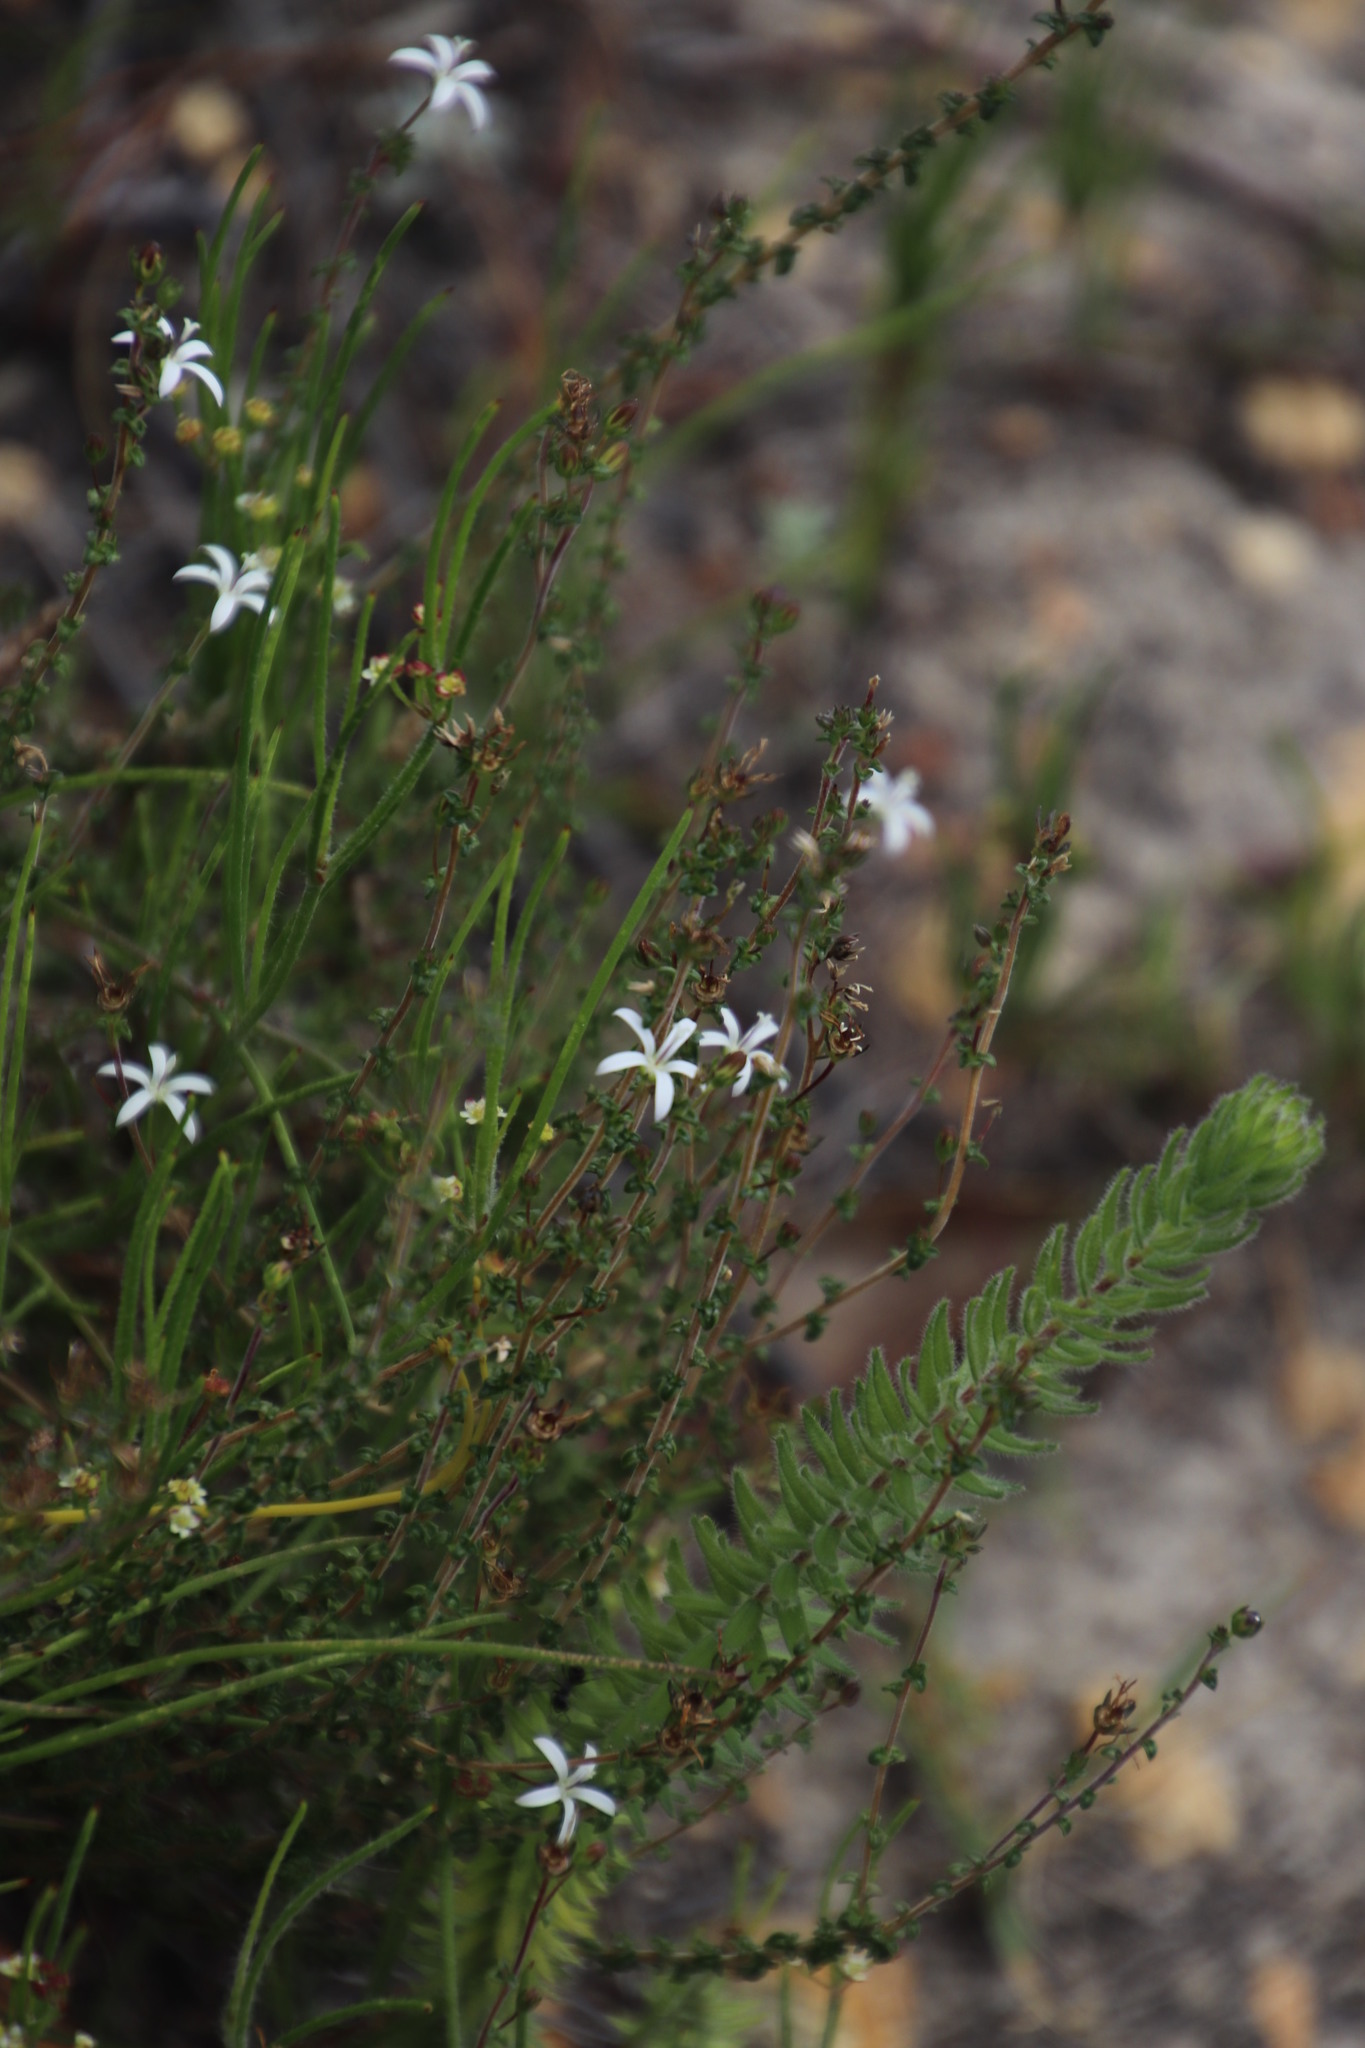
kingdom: Plantae
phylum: Tracheophyta
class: Magnoliopsida
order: Asterales
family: Campanulaceae
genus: Wahlenbergia
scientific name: Wahlenbergia tenella
